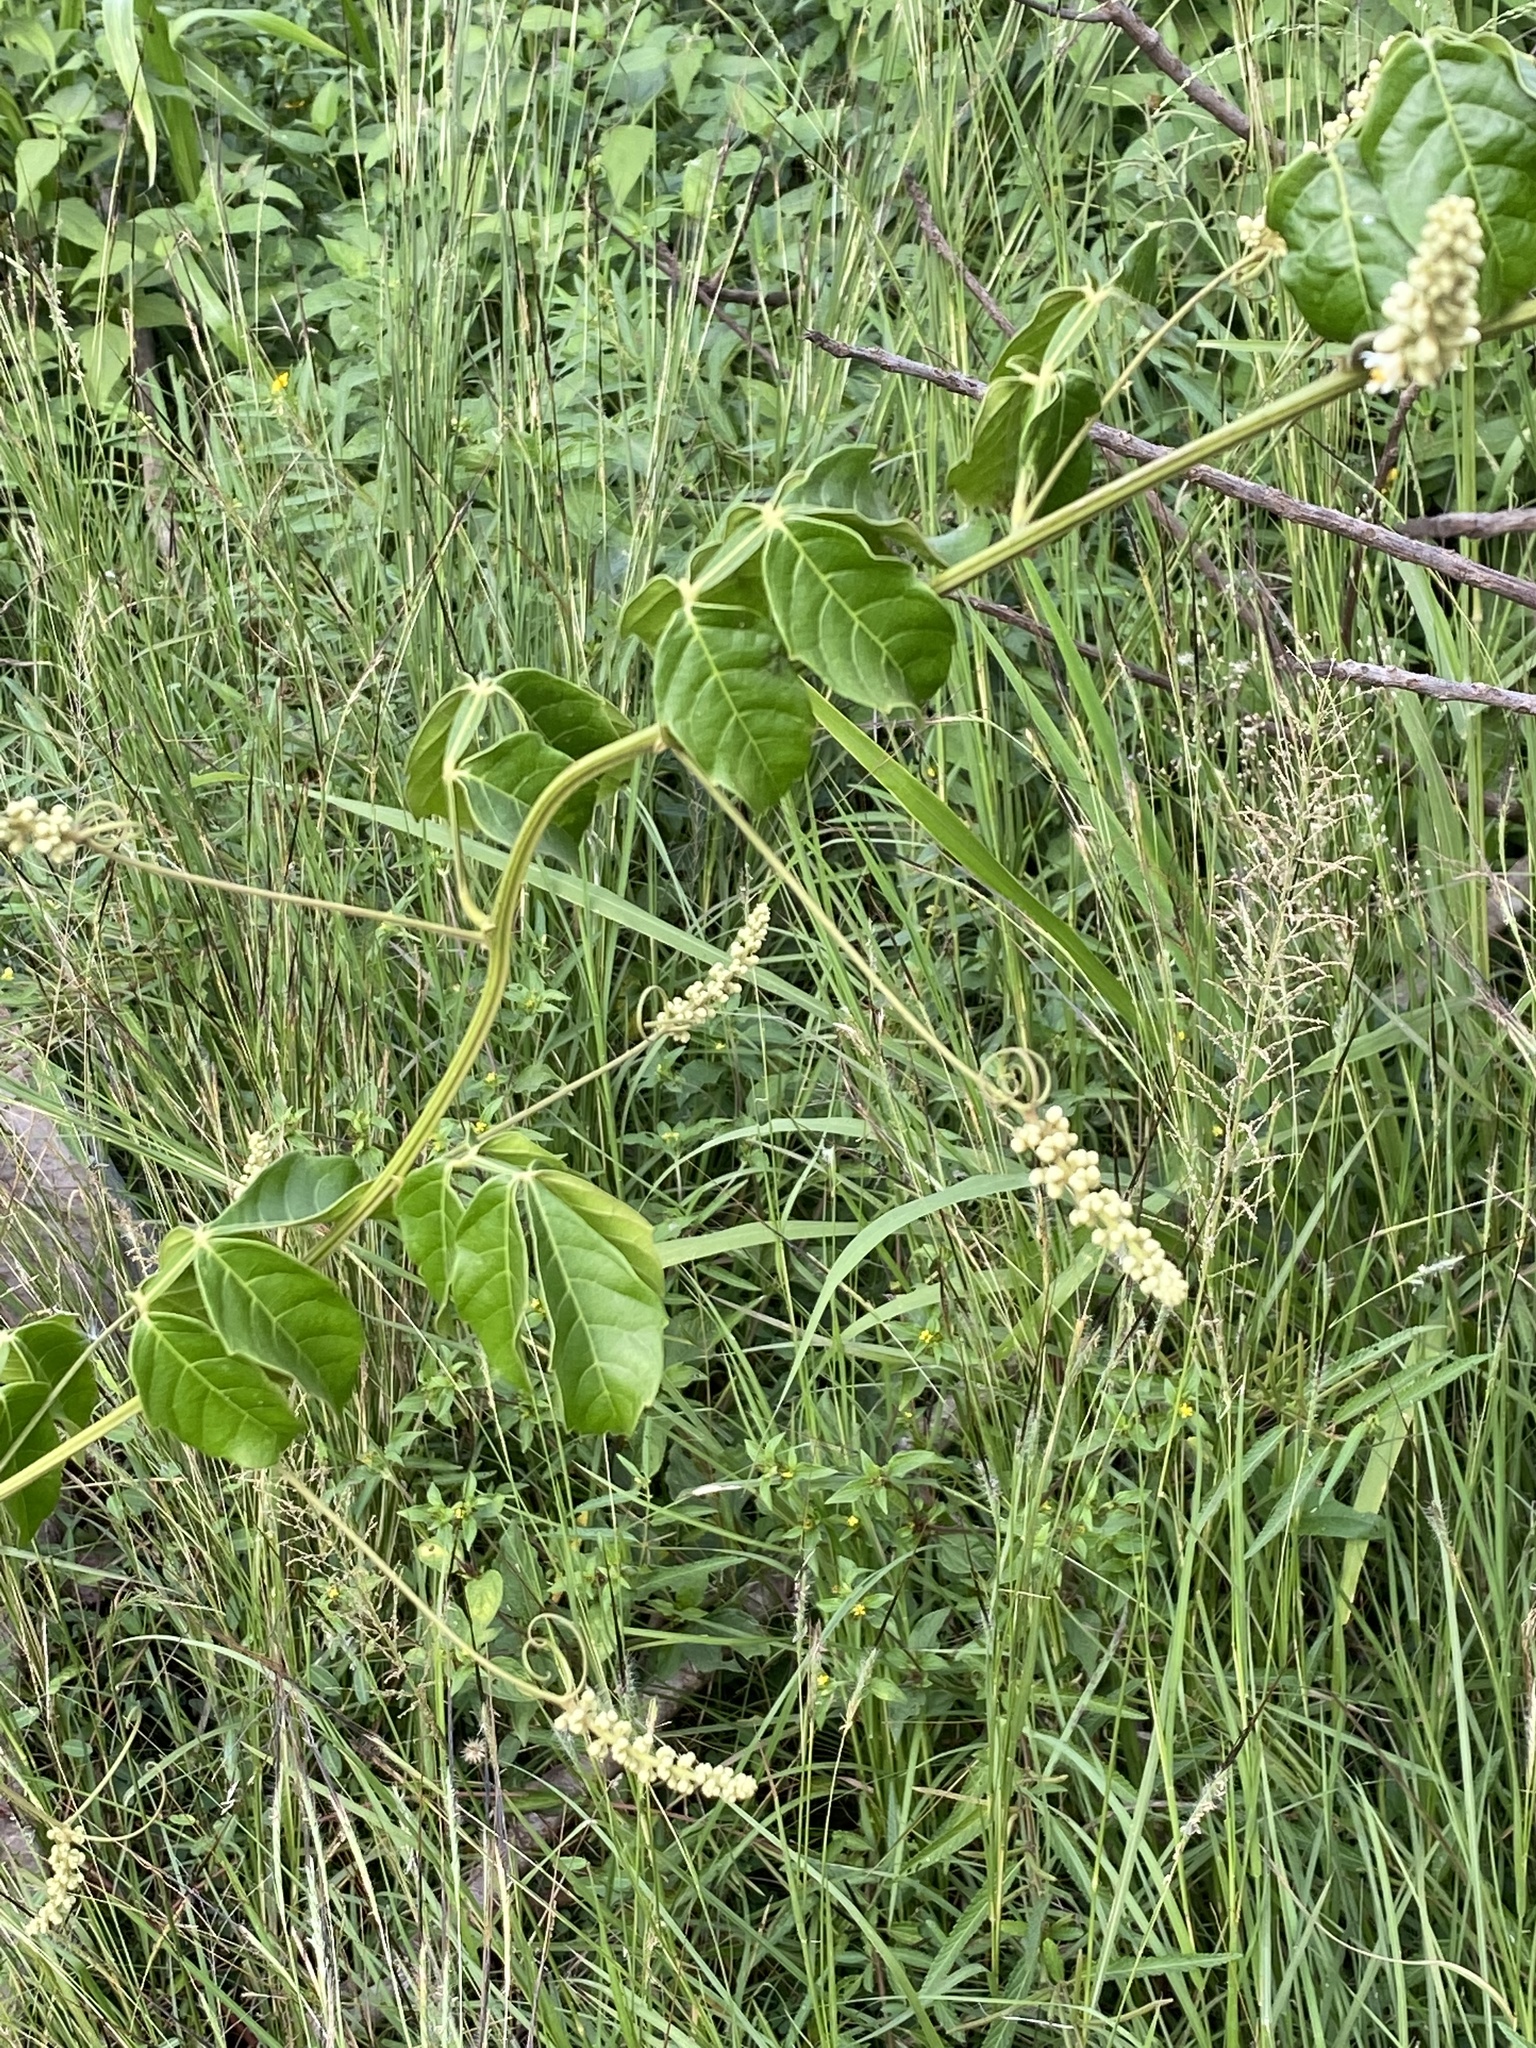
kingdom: Plantae
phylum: Tracheophyta
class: Magnoliopsida
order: Sapindales
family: Sapindaceae
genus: Paullinia
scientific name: Paullinia pinnata
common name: Barbasco
